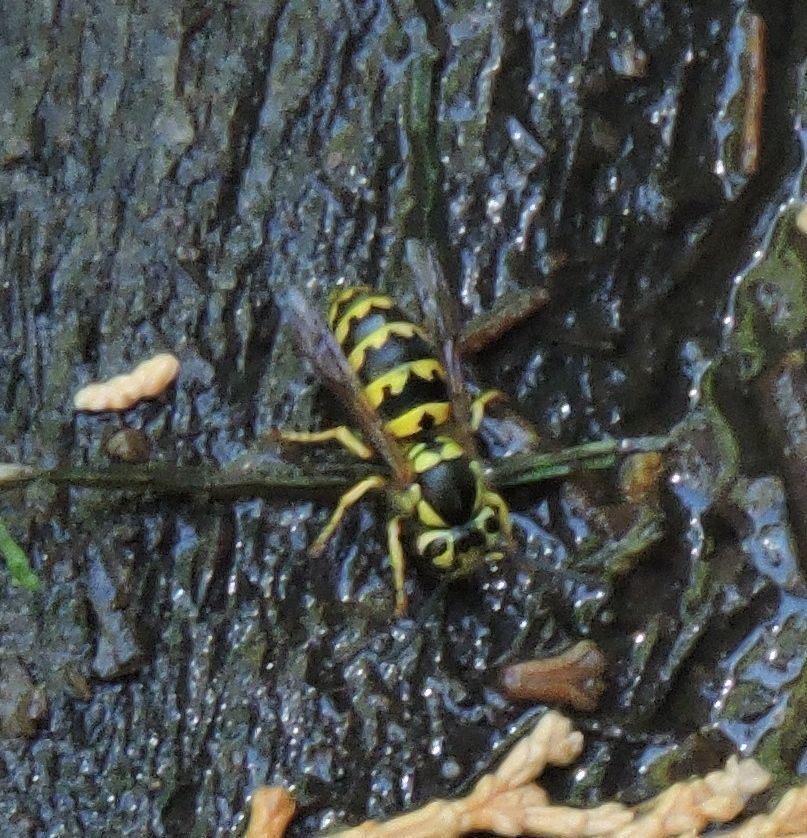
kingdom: Animalia
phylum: Arthropoda
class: Insecta
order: Hymenoptera
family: Vespidae
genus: Vespula
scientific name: Vespula pensylvanica
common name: Western yellowjacket
